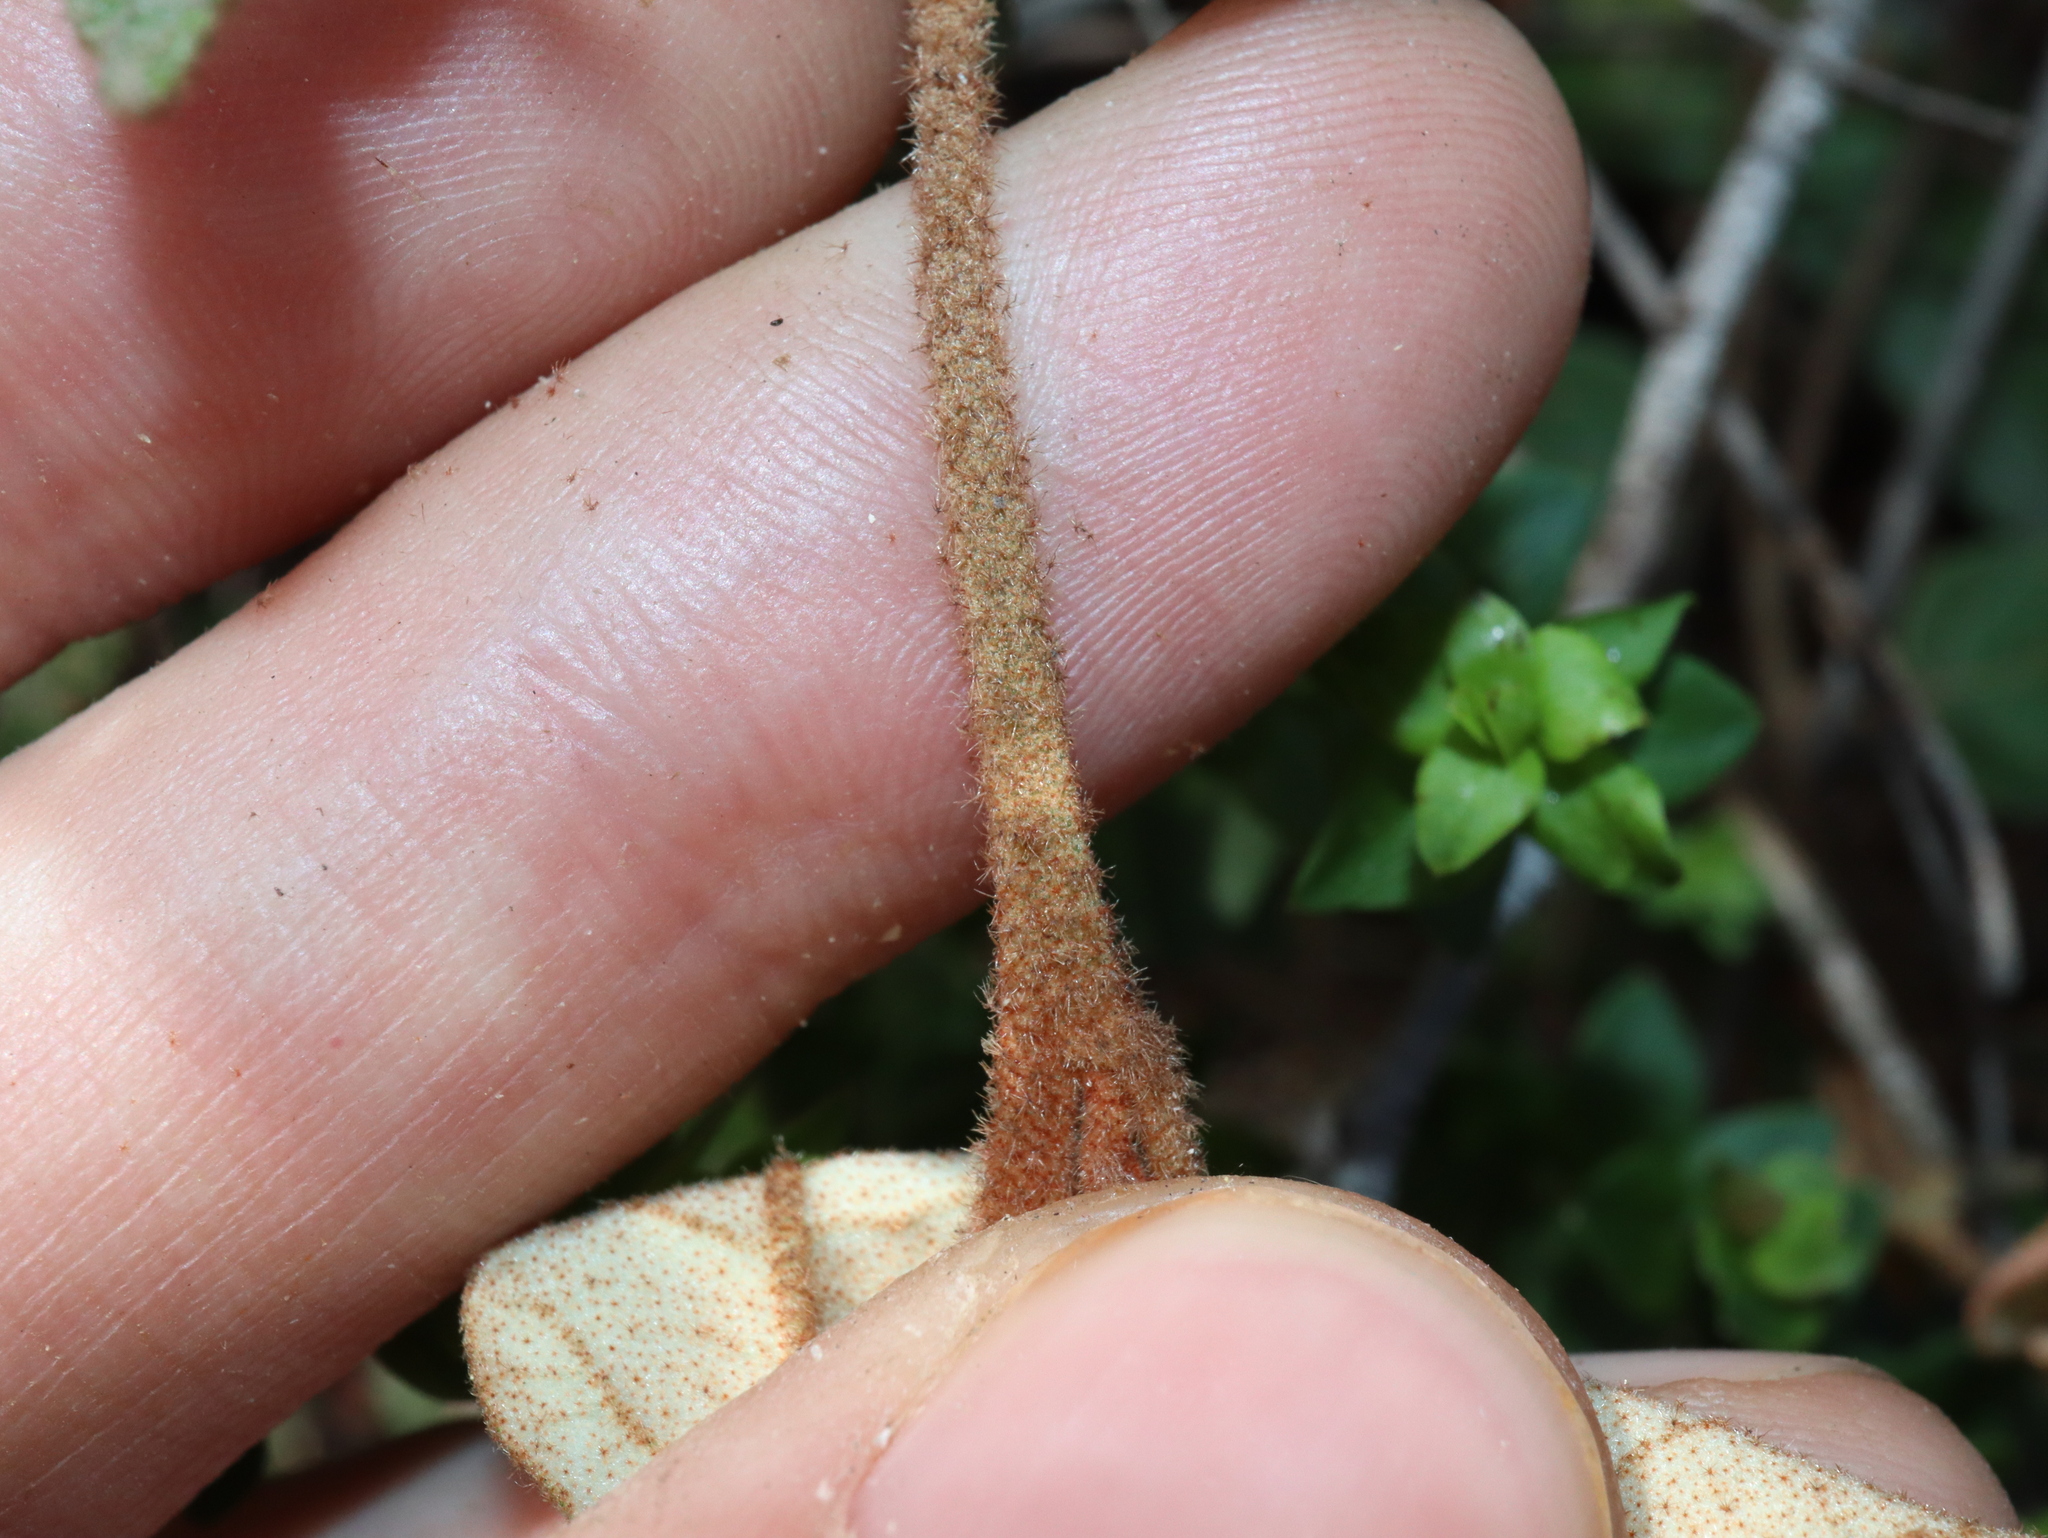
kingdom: Plantae
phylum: Tracheophyta
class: Magnoliopsida
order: Malvales
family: Malvaceae
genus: Lasiopetalum
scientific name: Lasiopetalum ferrugineum
